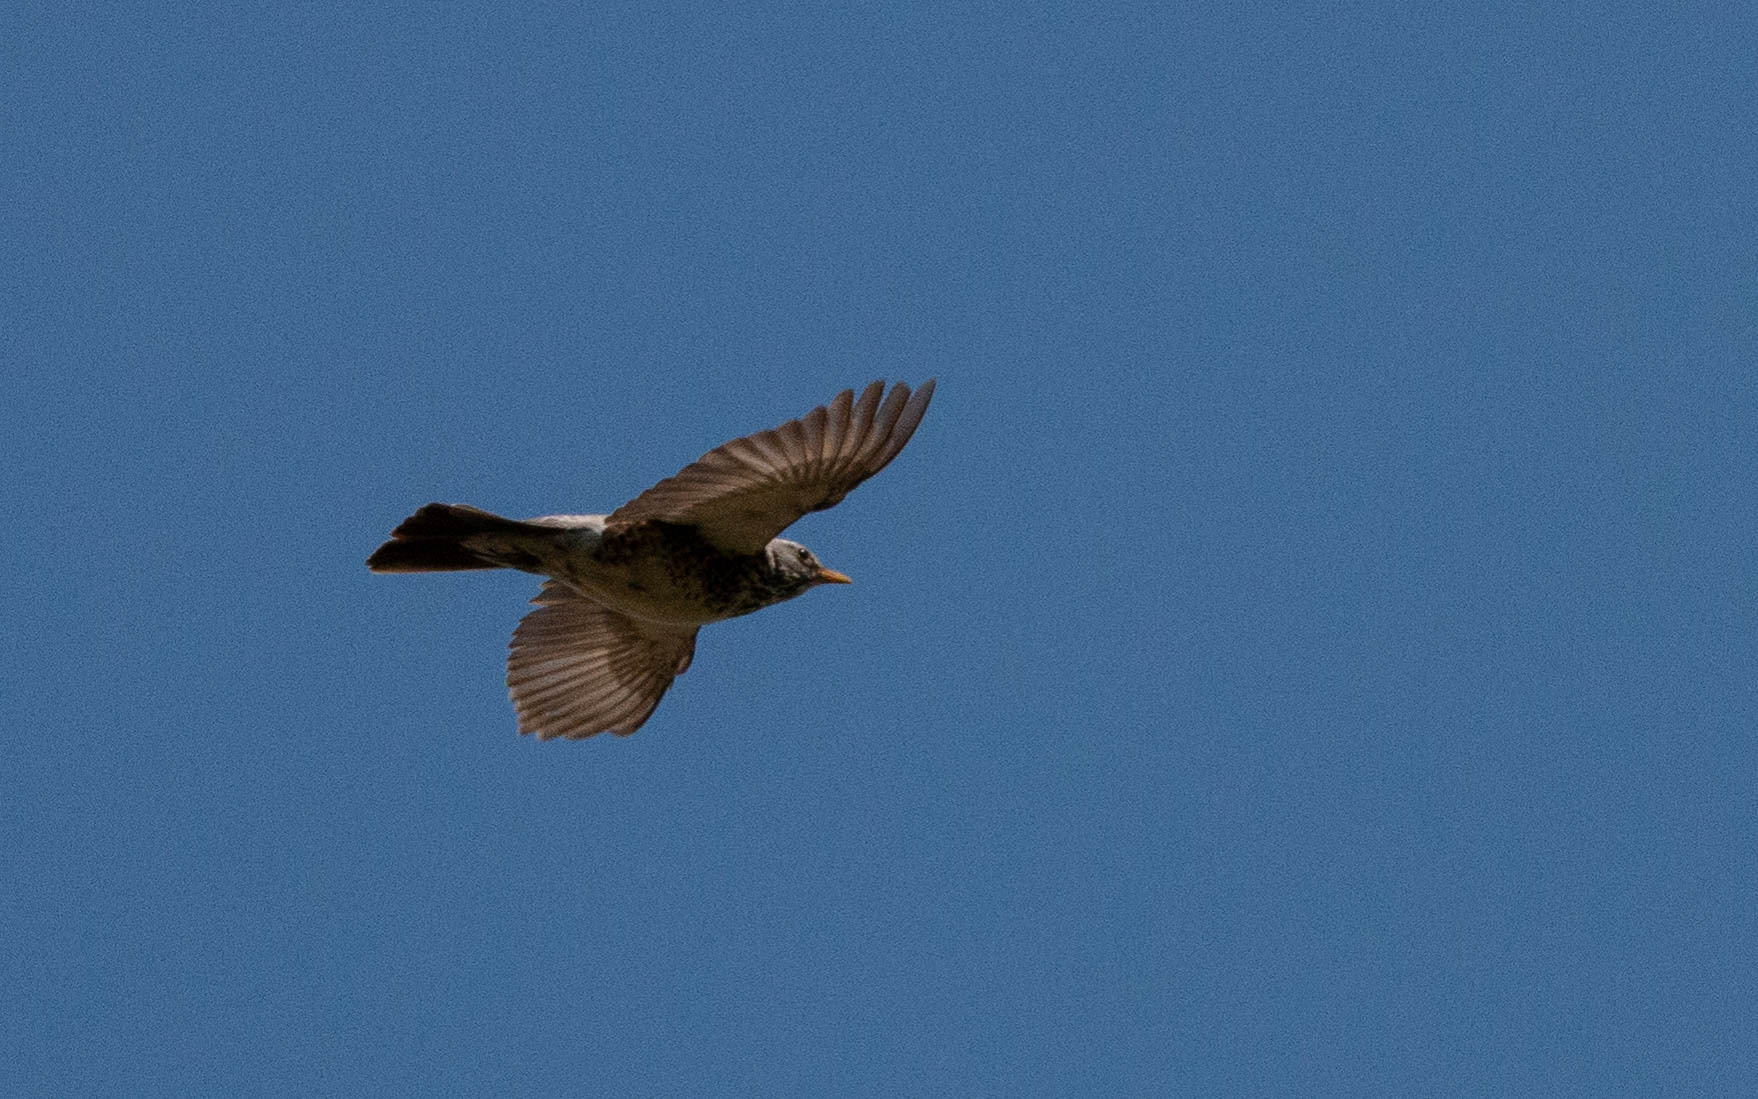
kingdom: Animalia
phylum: Chordata
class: Aves
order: Passeriformes
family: Turdidae
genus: Turdus
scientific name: Turdus pilaris
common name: Fieldfare
